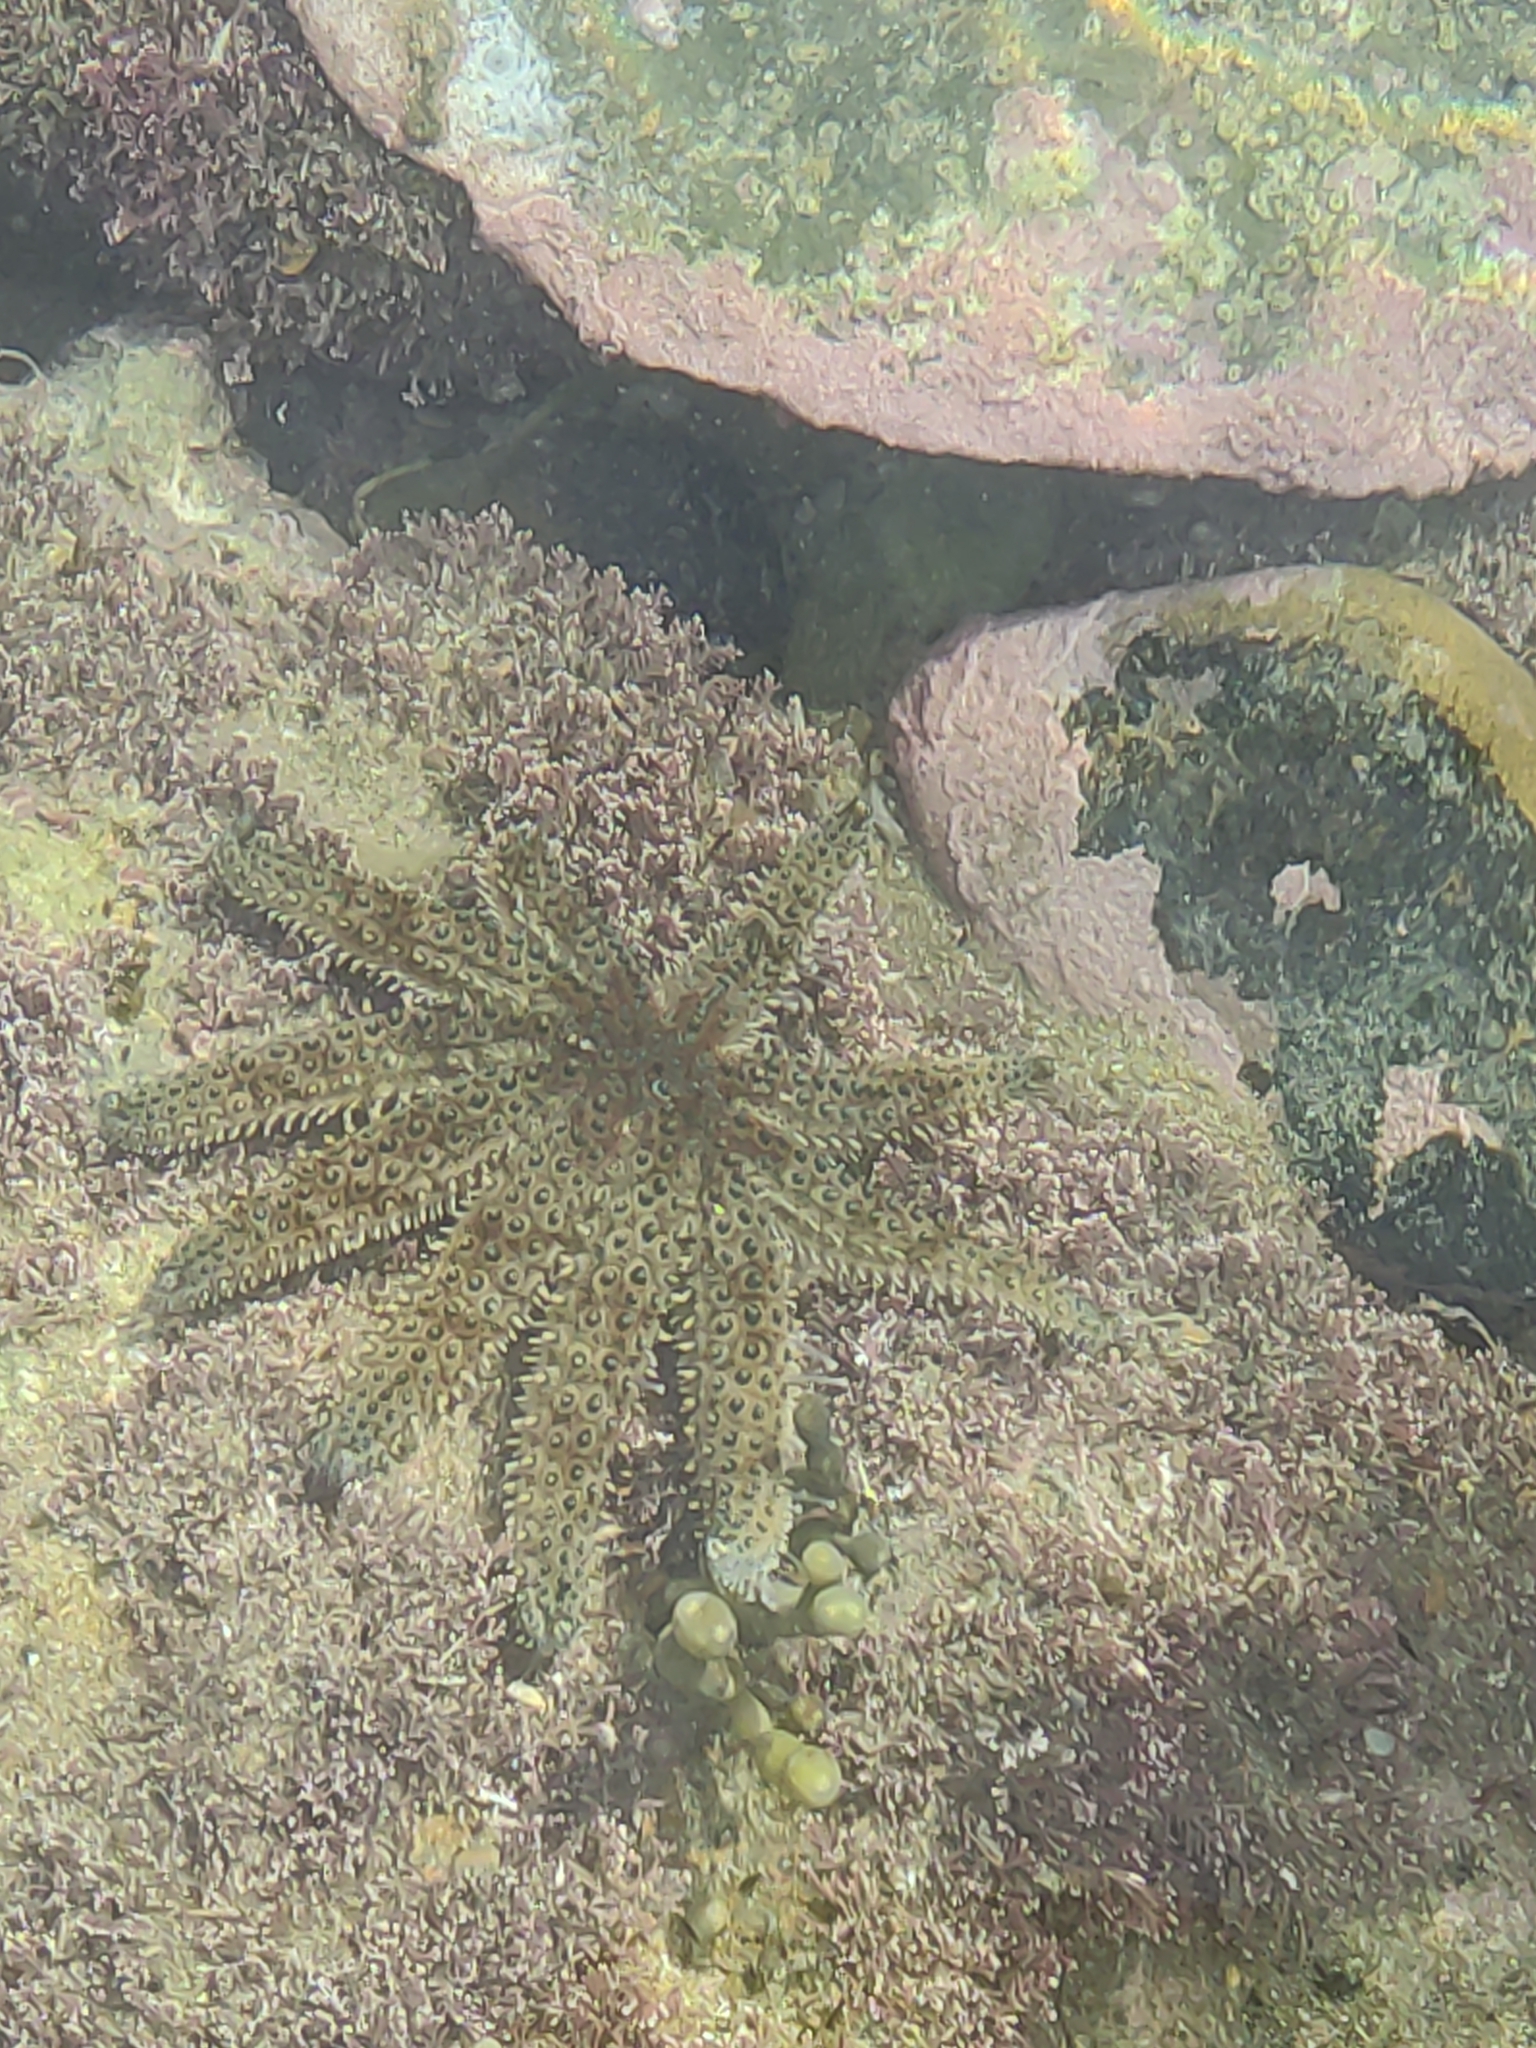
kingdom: Animalia
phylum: Echinodermata
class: Asteroidea
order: Forcipulatida
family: Asteriidae
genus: Coscinasterias
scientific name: Coscinasterias muricata
